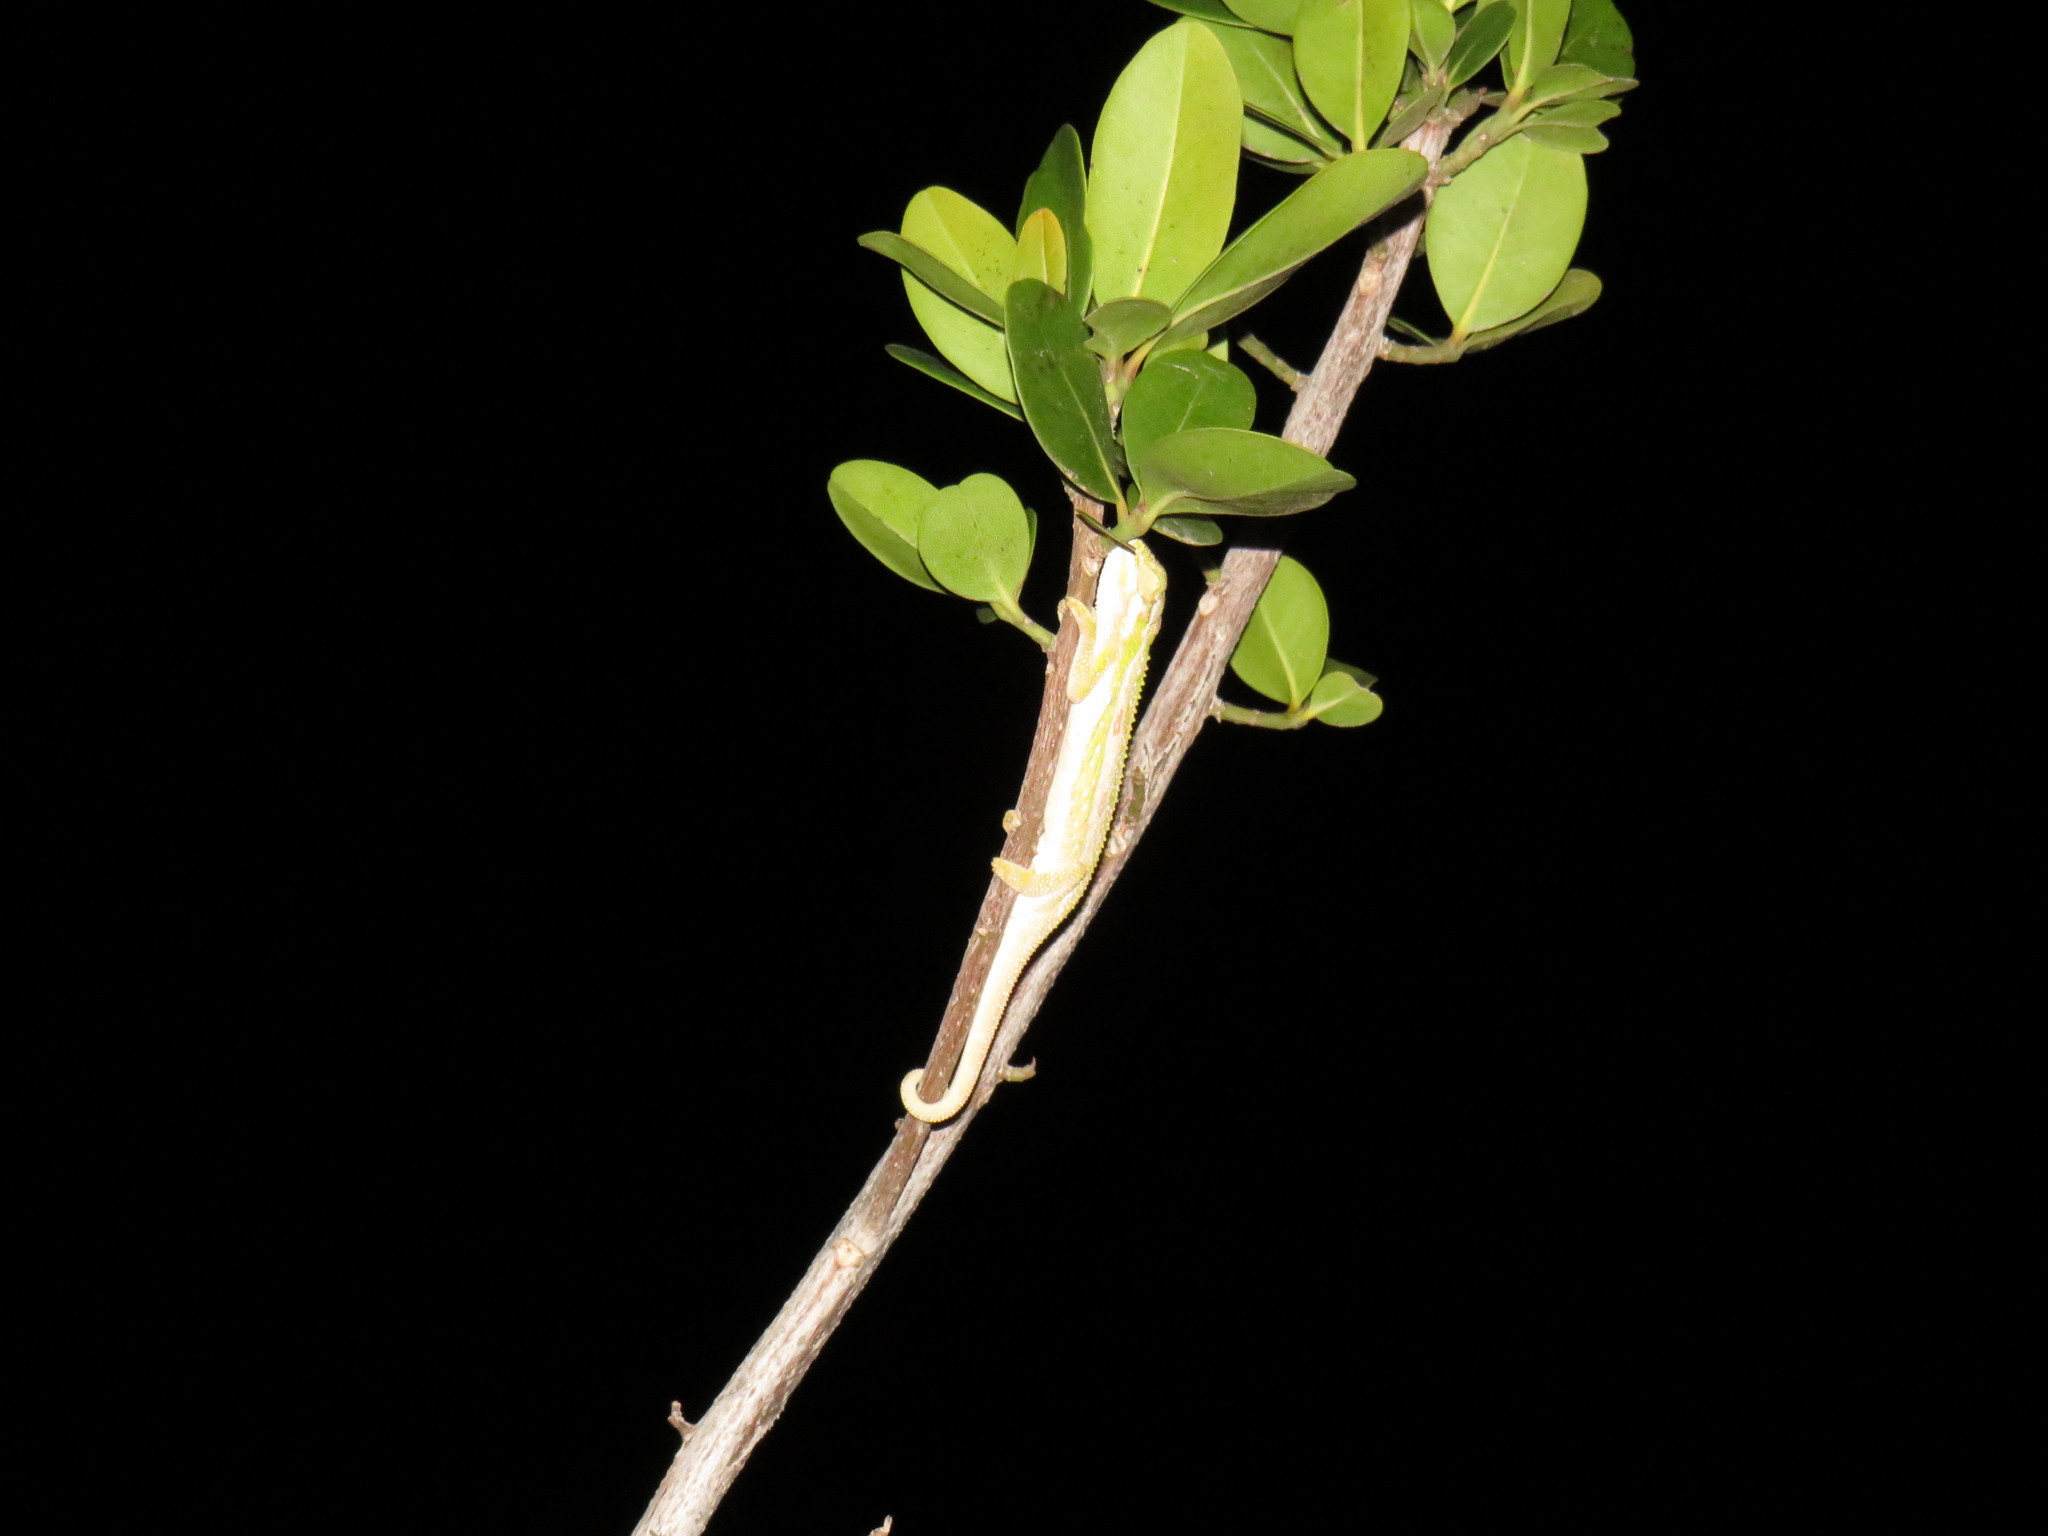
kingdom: Animalia
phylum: Chordata
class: Squamata
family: Chamaeleonidae
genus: Bradypodion
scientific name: Bradypodion pumilum
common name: Cape dwarf chameleon
